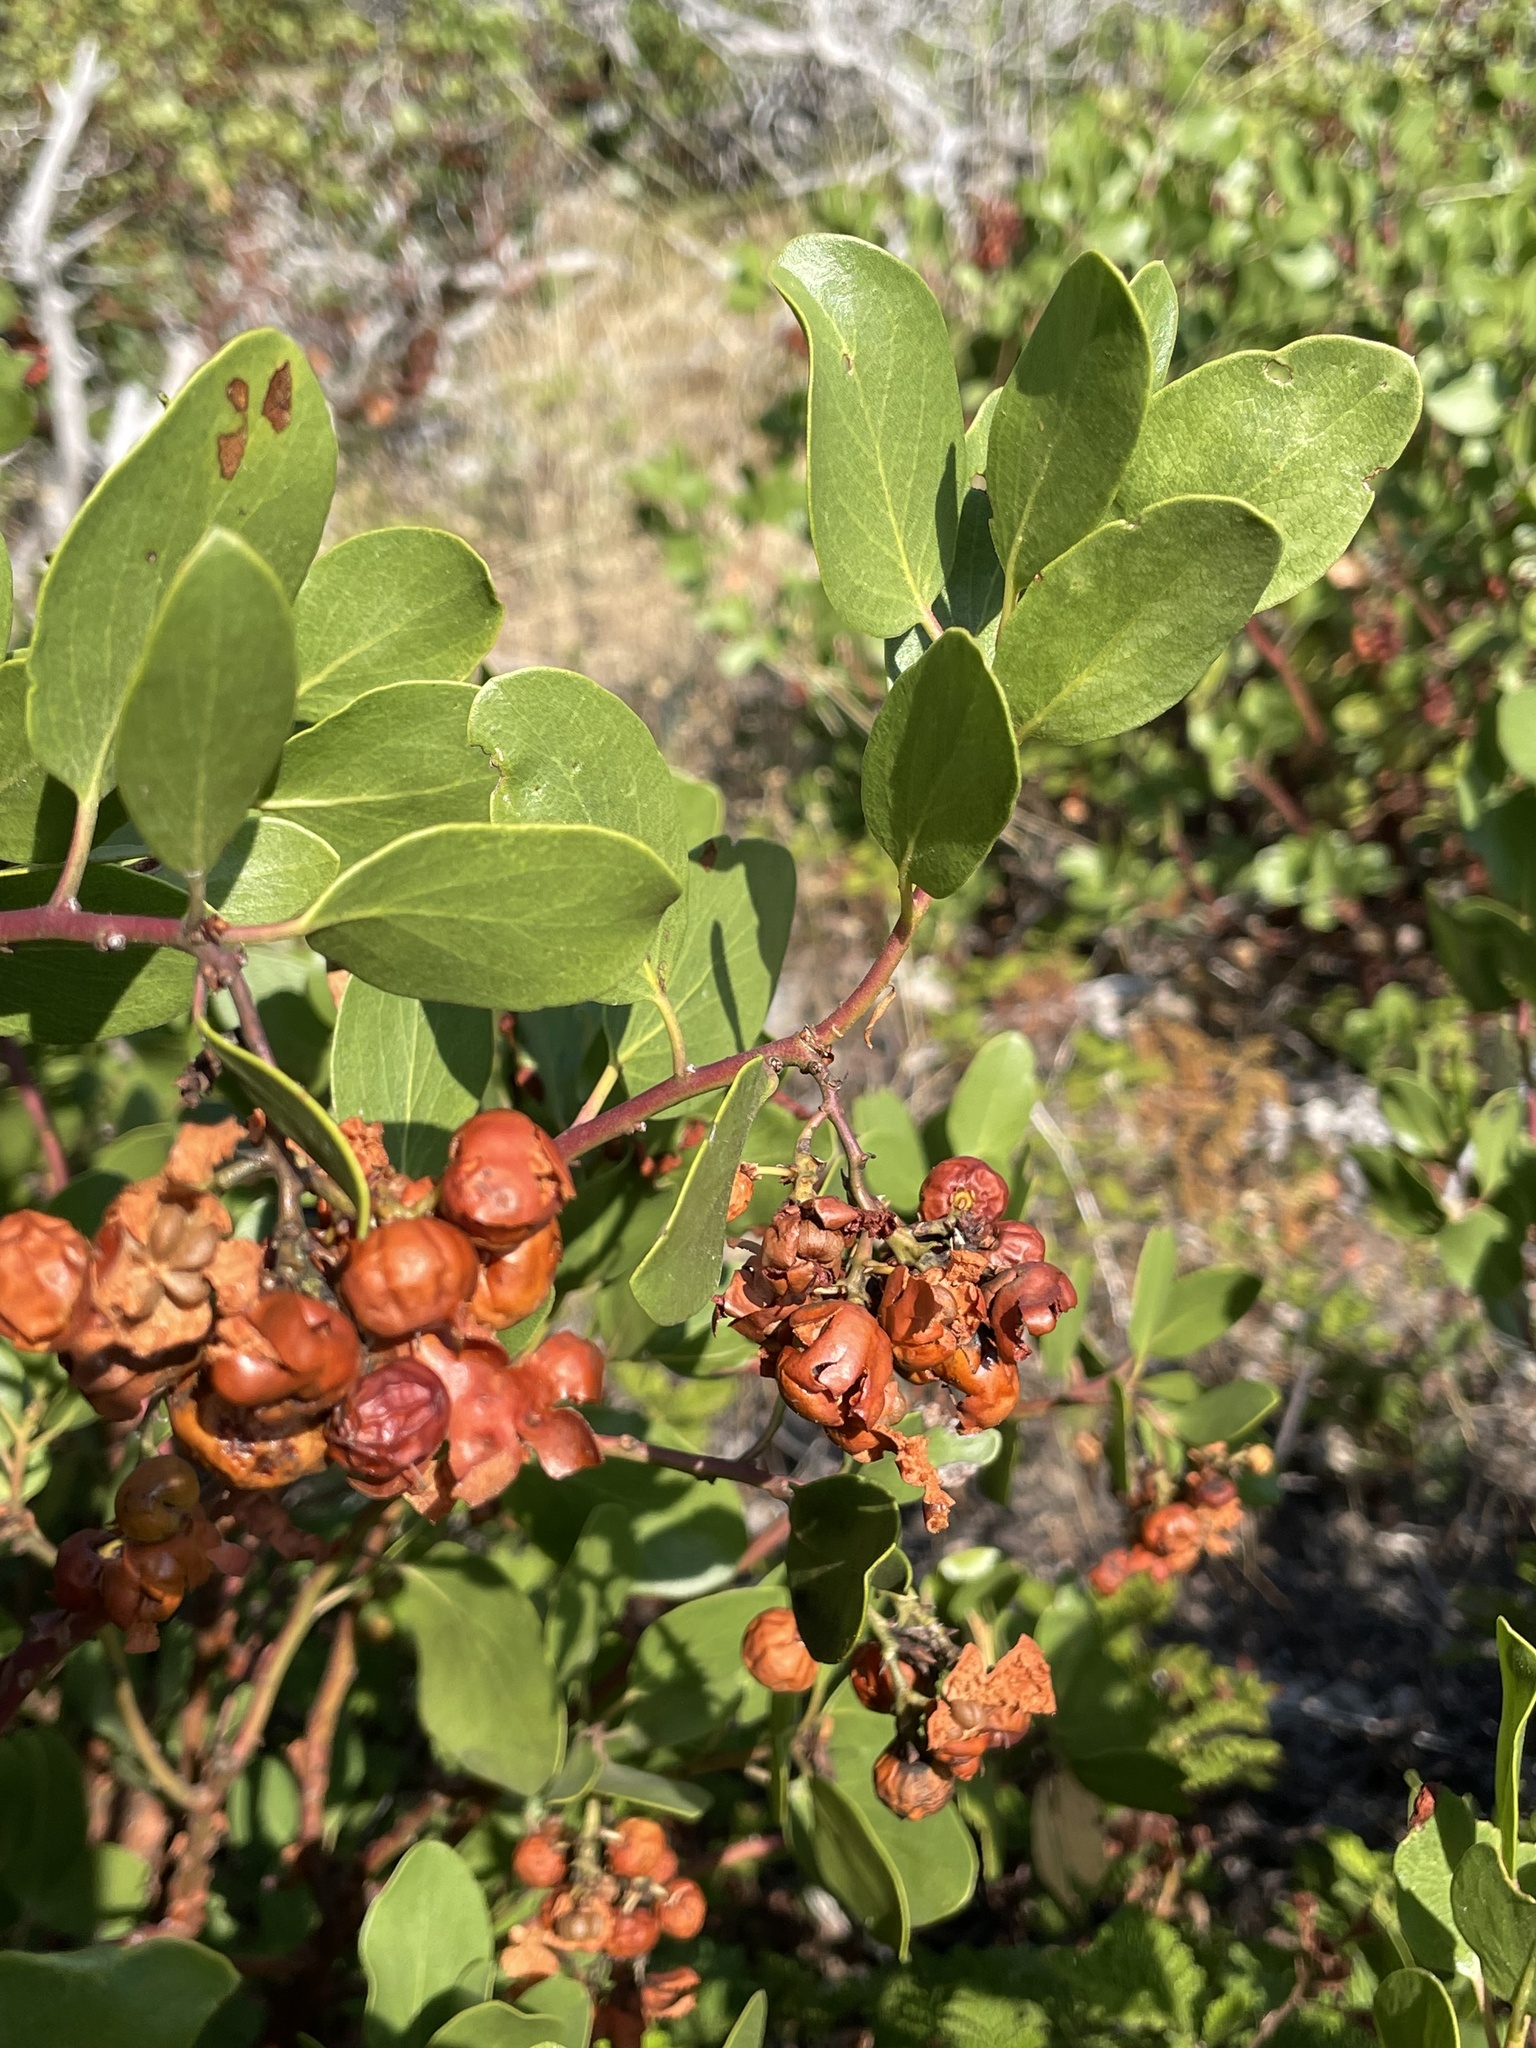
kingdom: Plantae
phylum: Tracheophyta
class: Magnoliopsida
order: Ericales
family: Ericaceae
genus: Arctostaphylos
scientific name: Arctostaphylos patula
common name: Green-leaf manzanita
